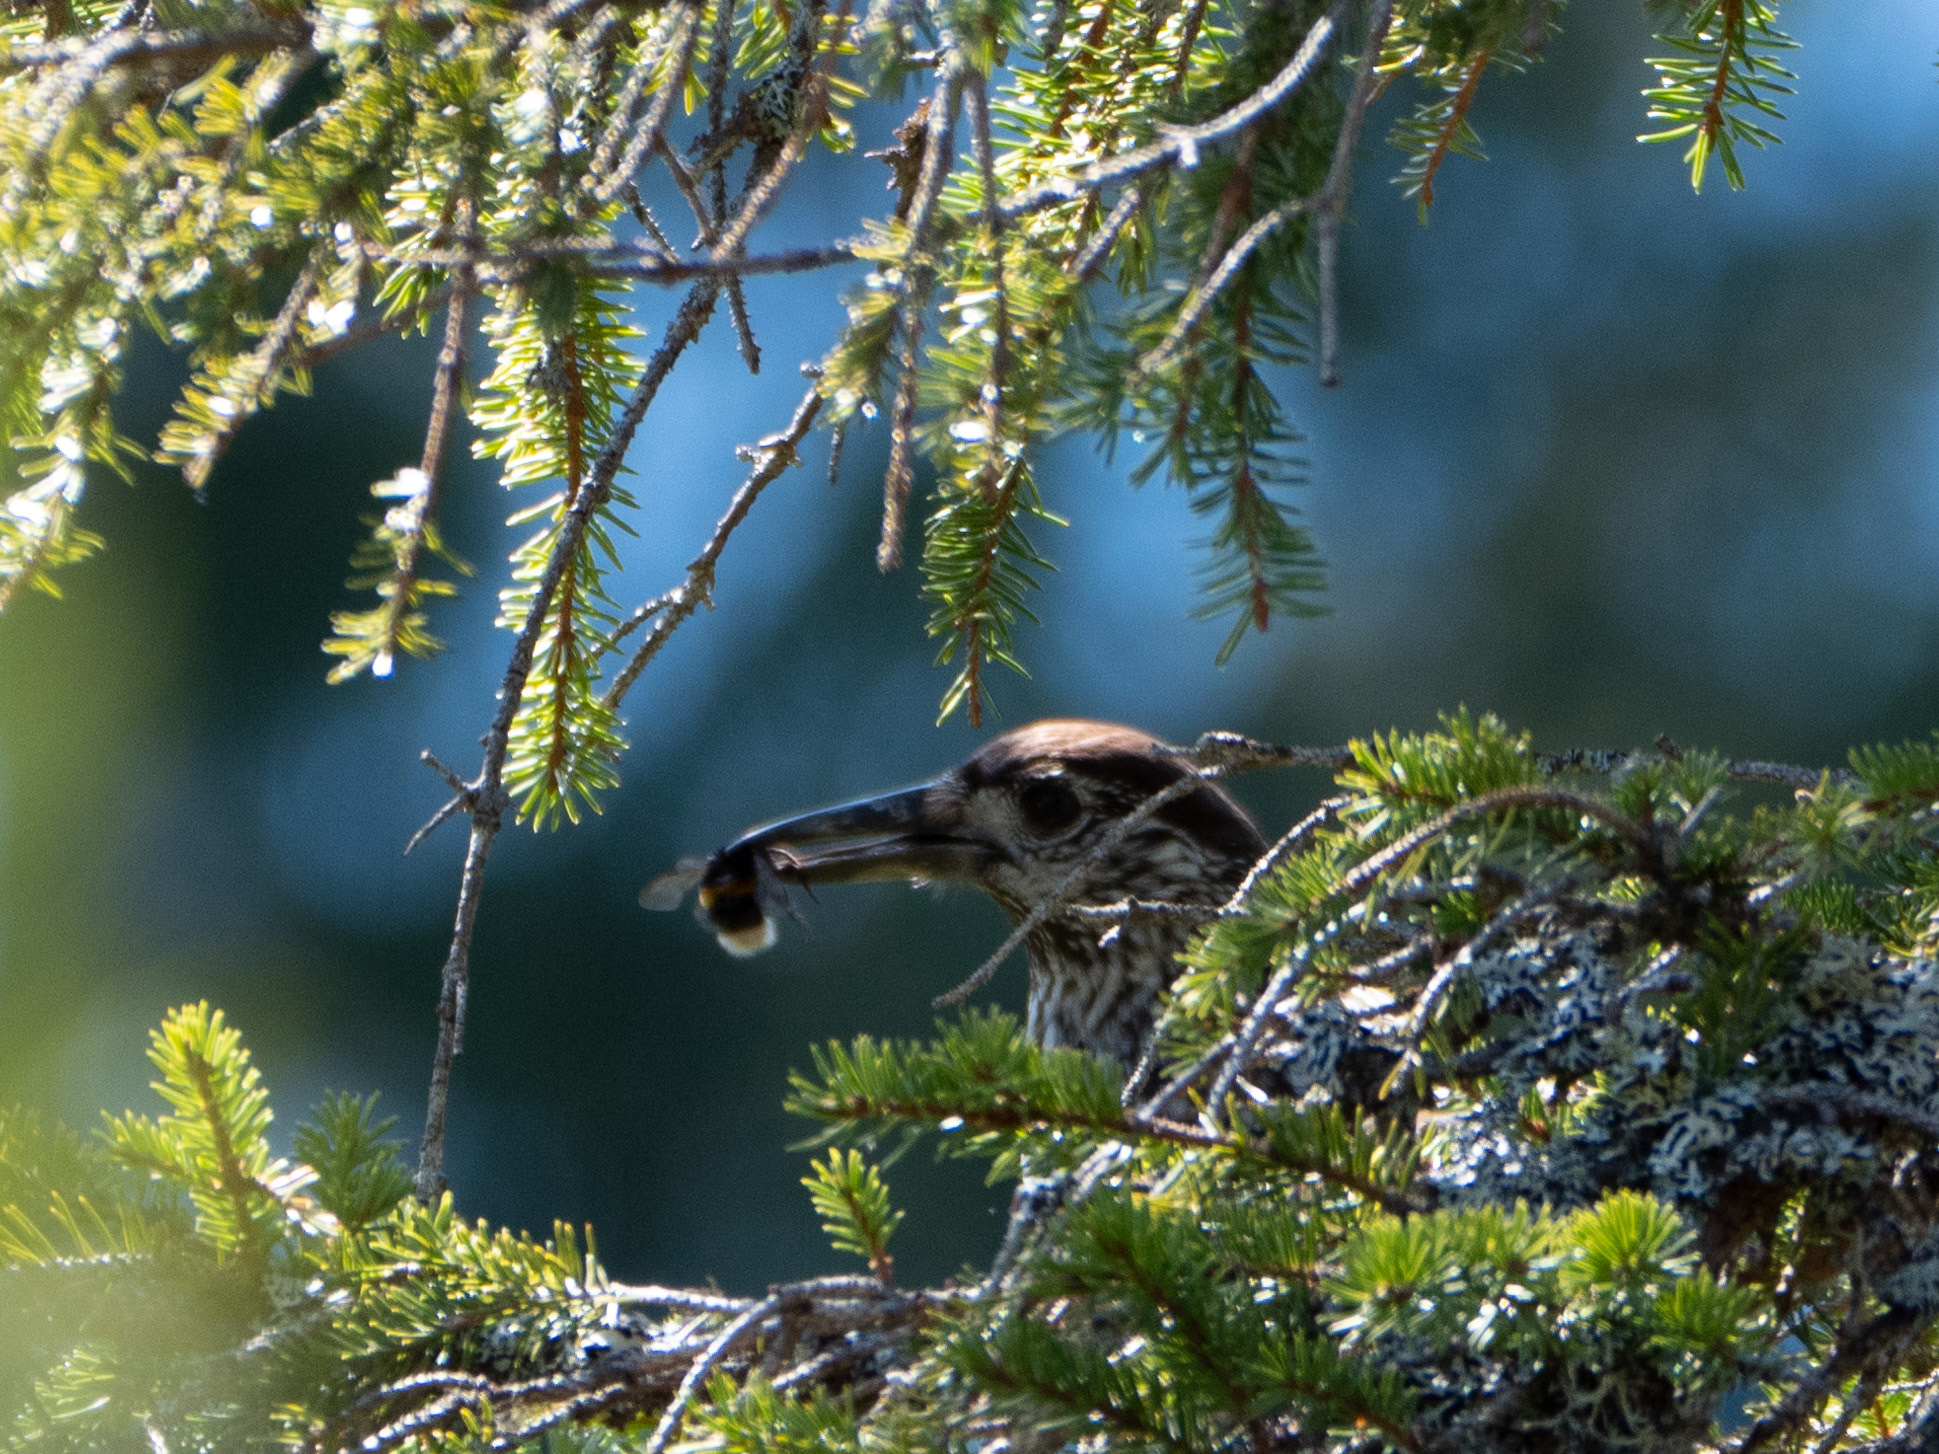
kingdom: Animalia
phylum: Chordata
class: Aves
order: Passeriformes
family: Corvidae
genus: Nucifraga
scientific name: Nucifraga caryocatactes
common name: Spotted nutcracker
